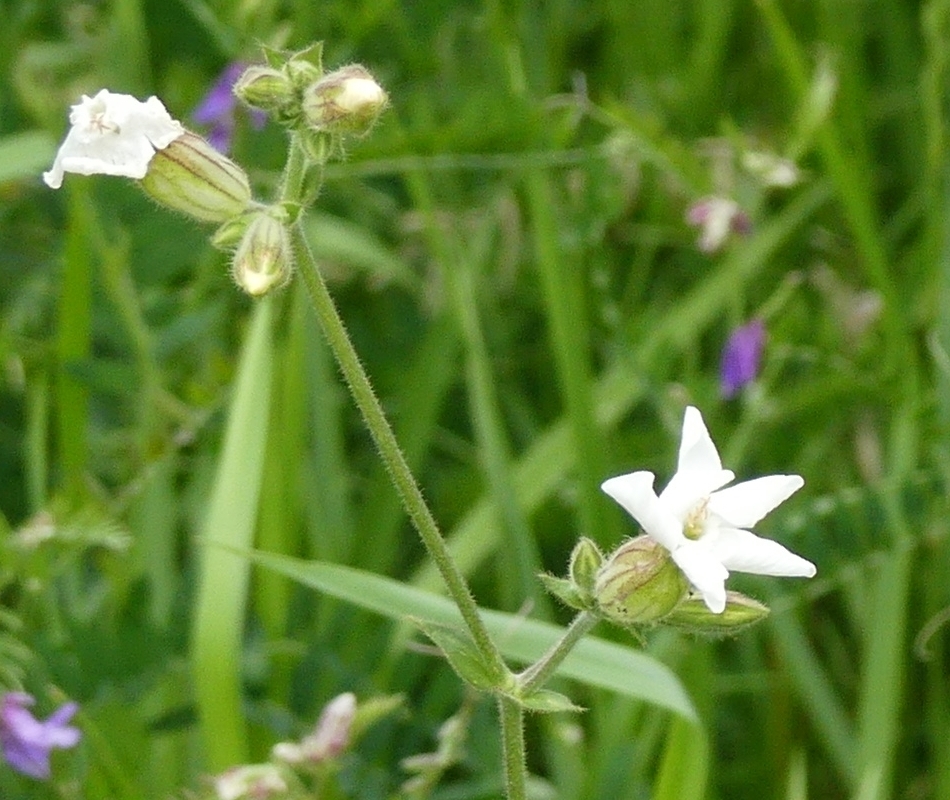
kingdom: Plantae
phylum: Tracheophyta
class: Magnoliopsida
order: Caryophyllales
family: Caryophyllaceae
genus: Silene
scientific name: Silene latifolia
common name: White campion
